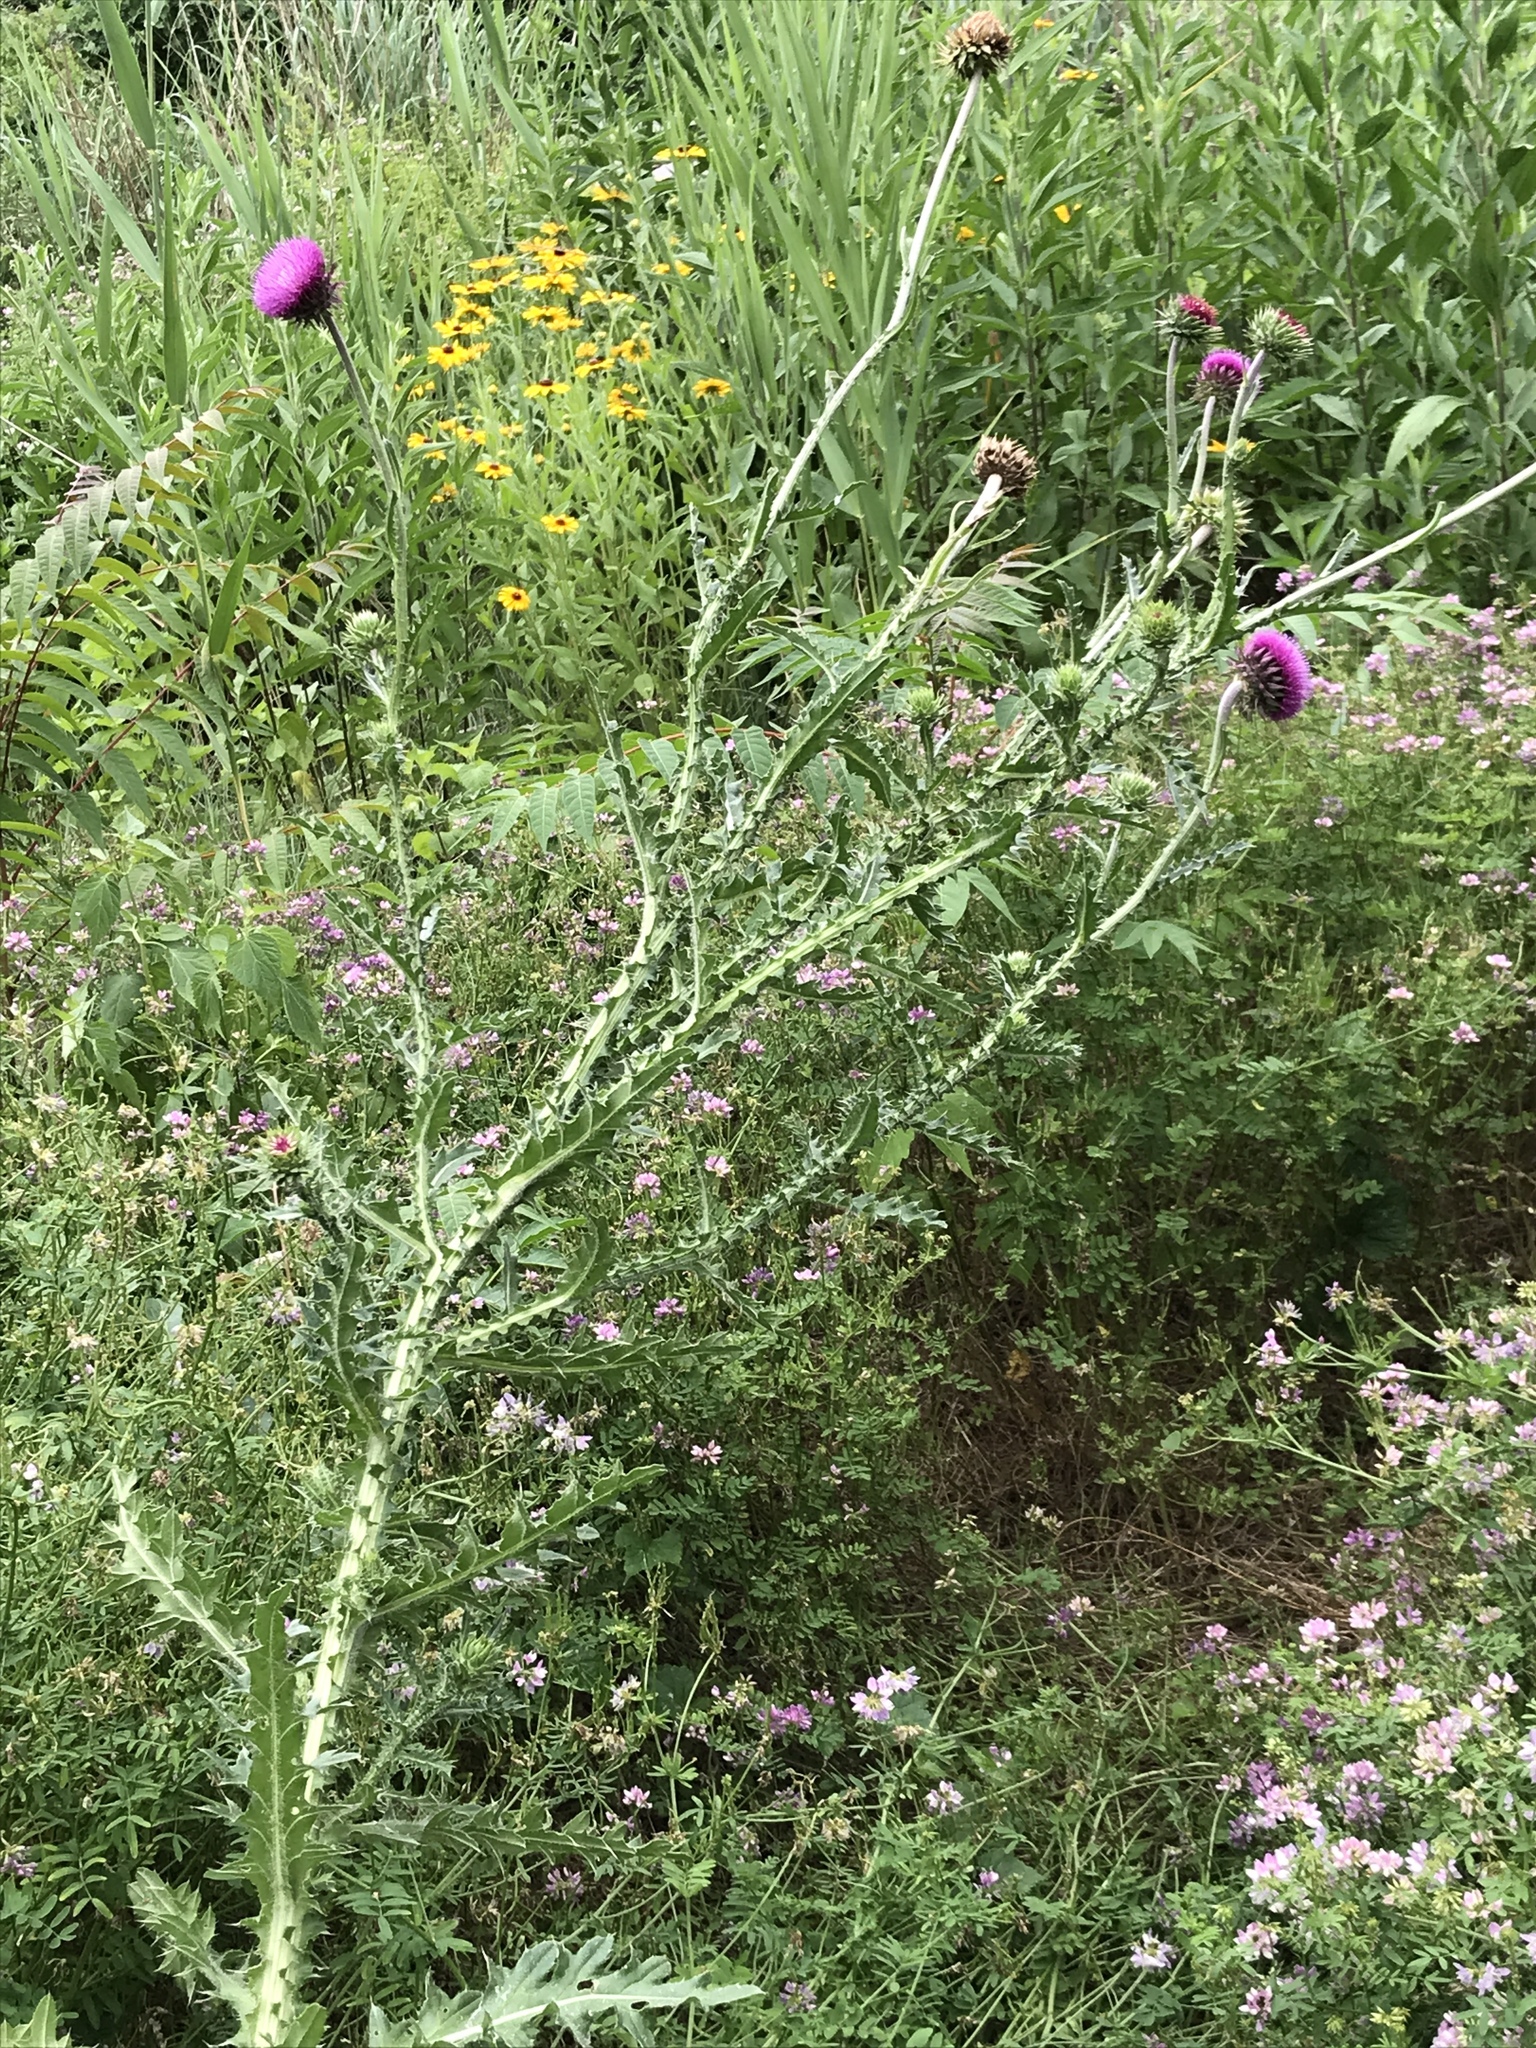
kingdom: Plantae
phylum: Tracheophyta
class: Magnoliopsida
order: Asterales
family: Asteraceae
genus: Carduus
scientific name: Carduus nutans
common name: Musk thistle
